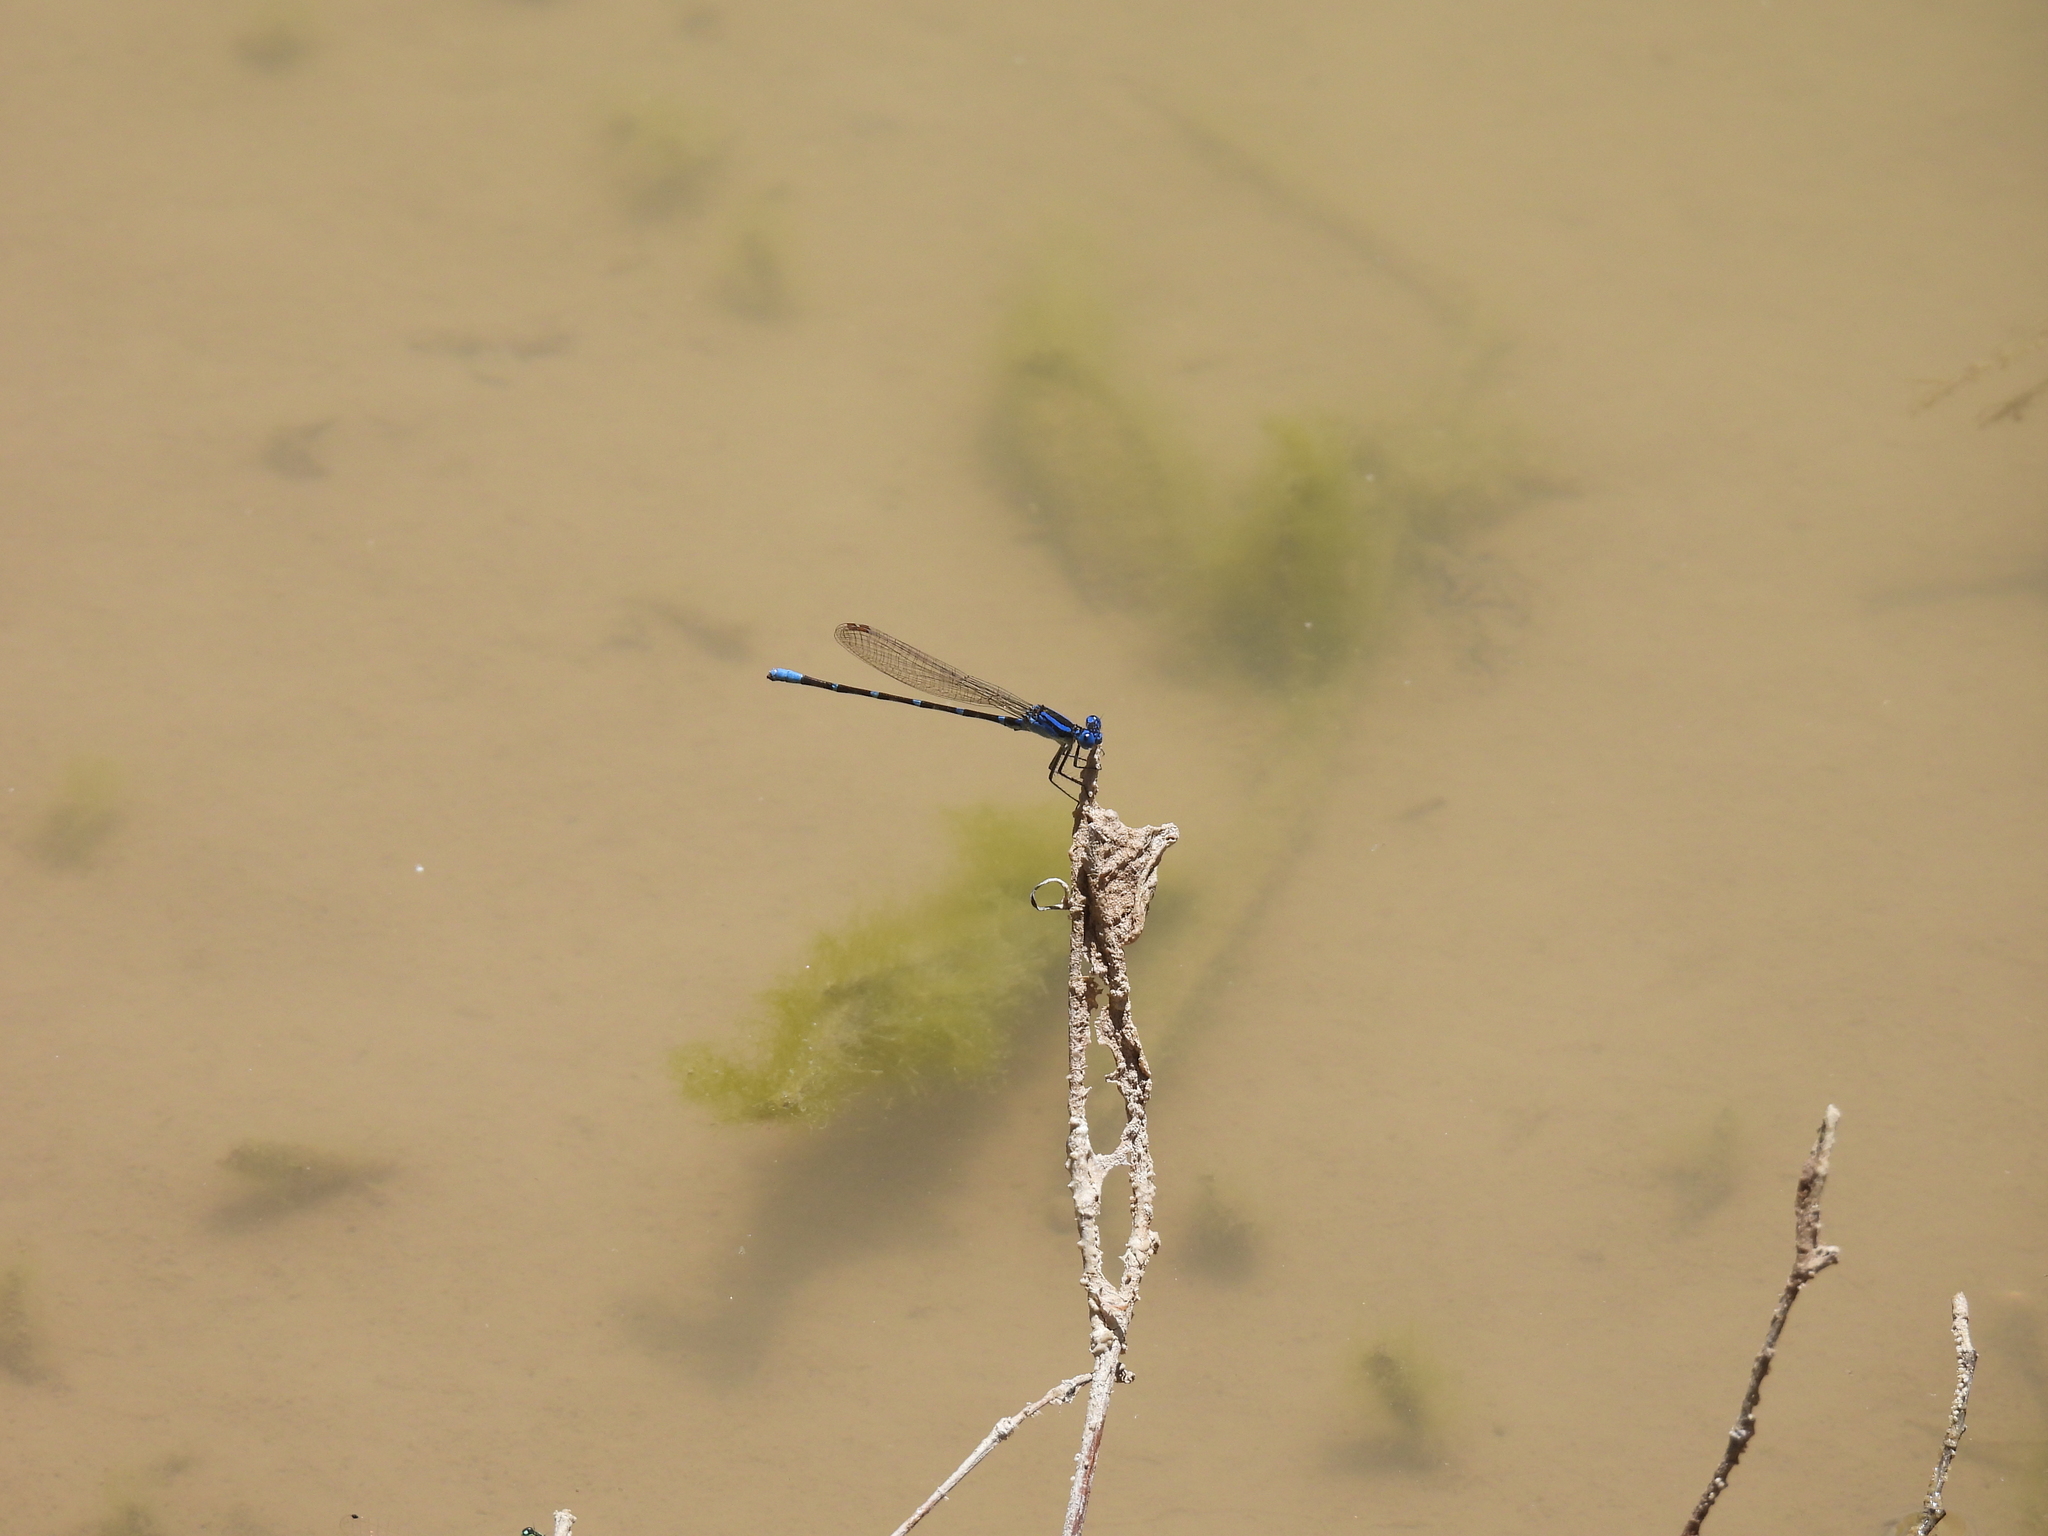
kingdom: Animalia
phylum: Arthropoda
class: Insecta
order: Odonata
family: Coenagrionidae
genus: Argia
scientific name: Argia sedula
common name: Blue-ringed dancer
